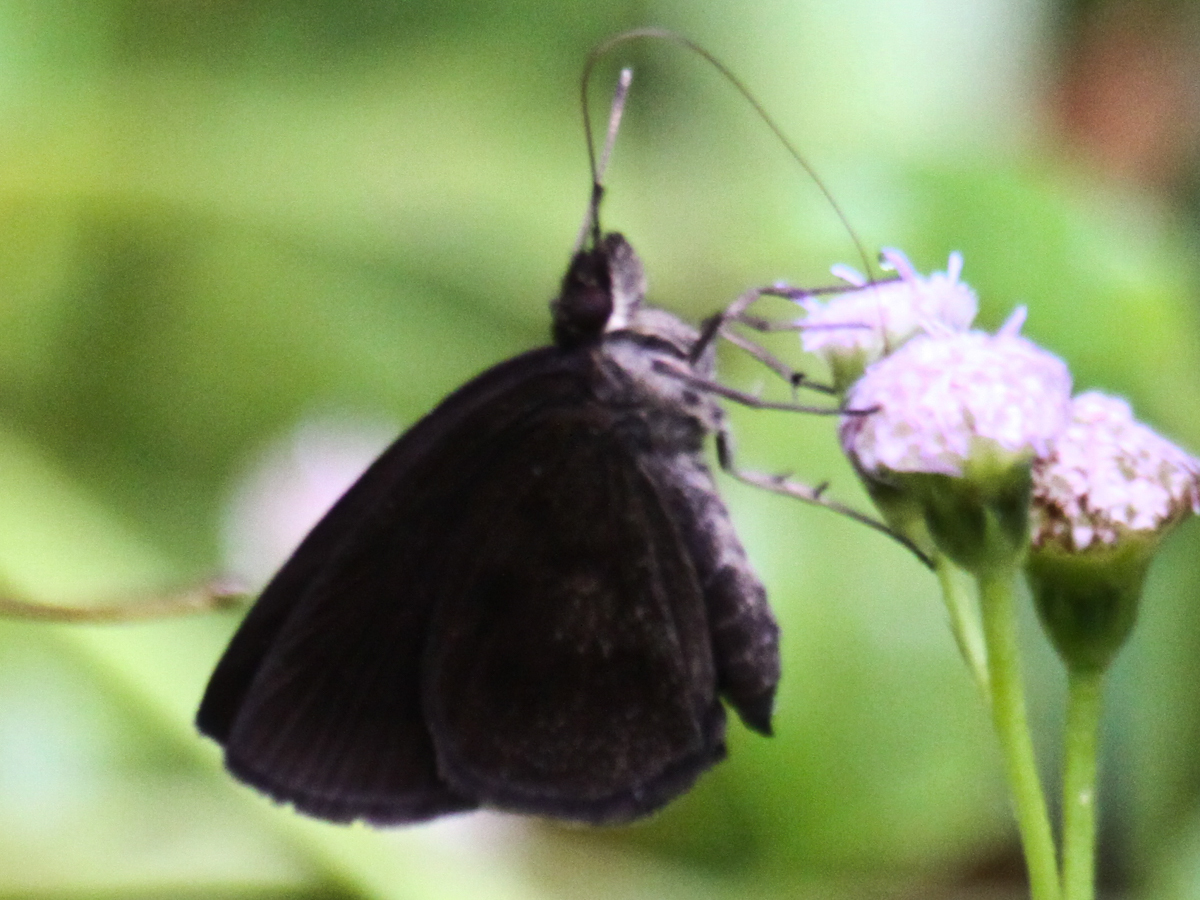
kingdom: Animalia
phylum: Arthropoda
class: Insecta
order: Lepidoptera
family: Hesperiidae
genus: Astictopterus
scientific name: Astictopterus jama
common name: Forest hopper
